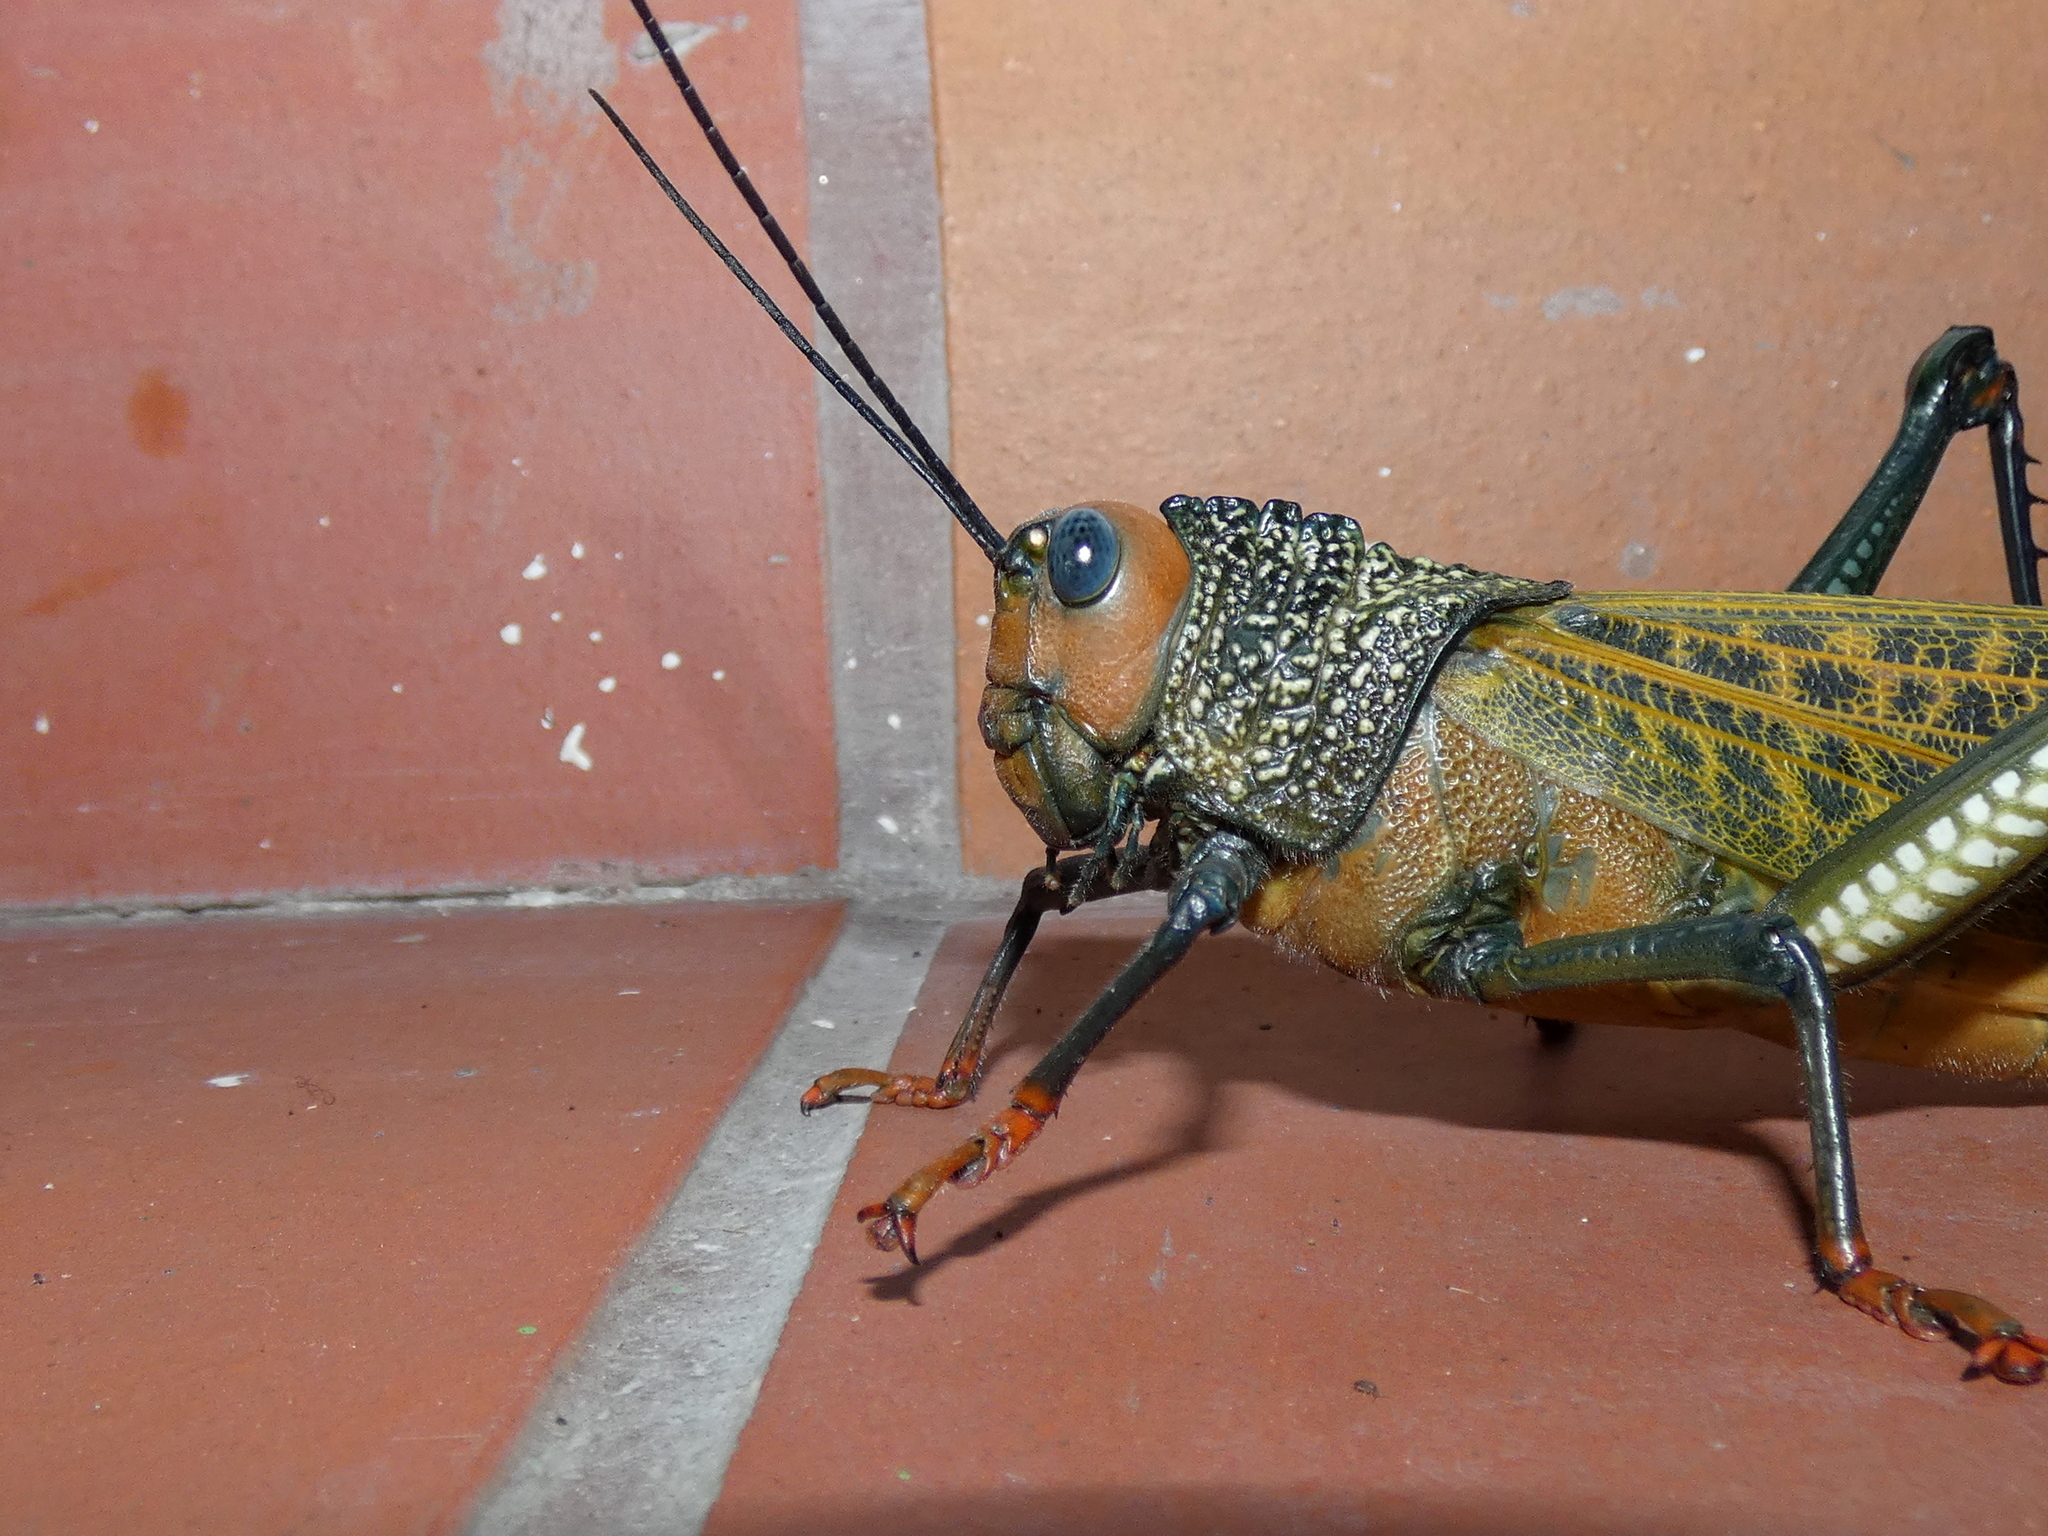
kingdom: Animalia
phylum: Arthropoda
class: Insecta
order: Orthoptera
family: Romaleidae
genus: Tropidacris
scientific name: Tropidacris cristata
